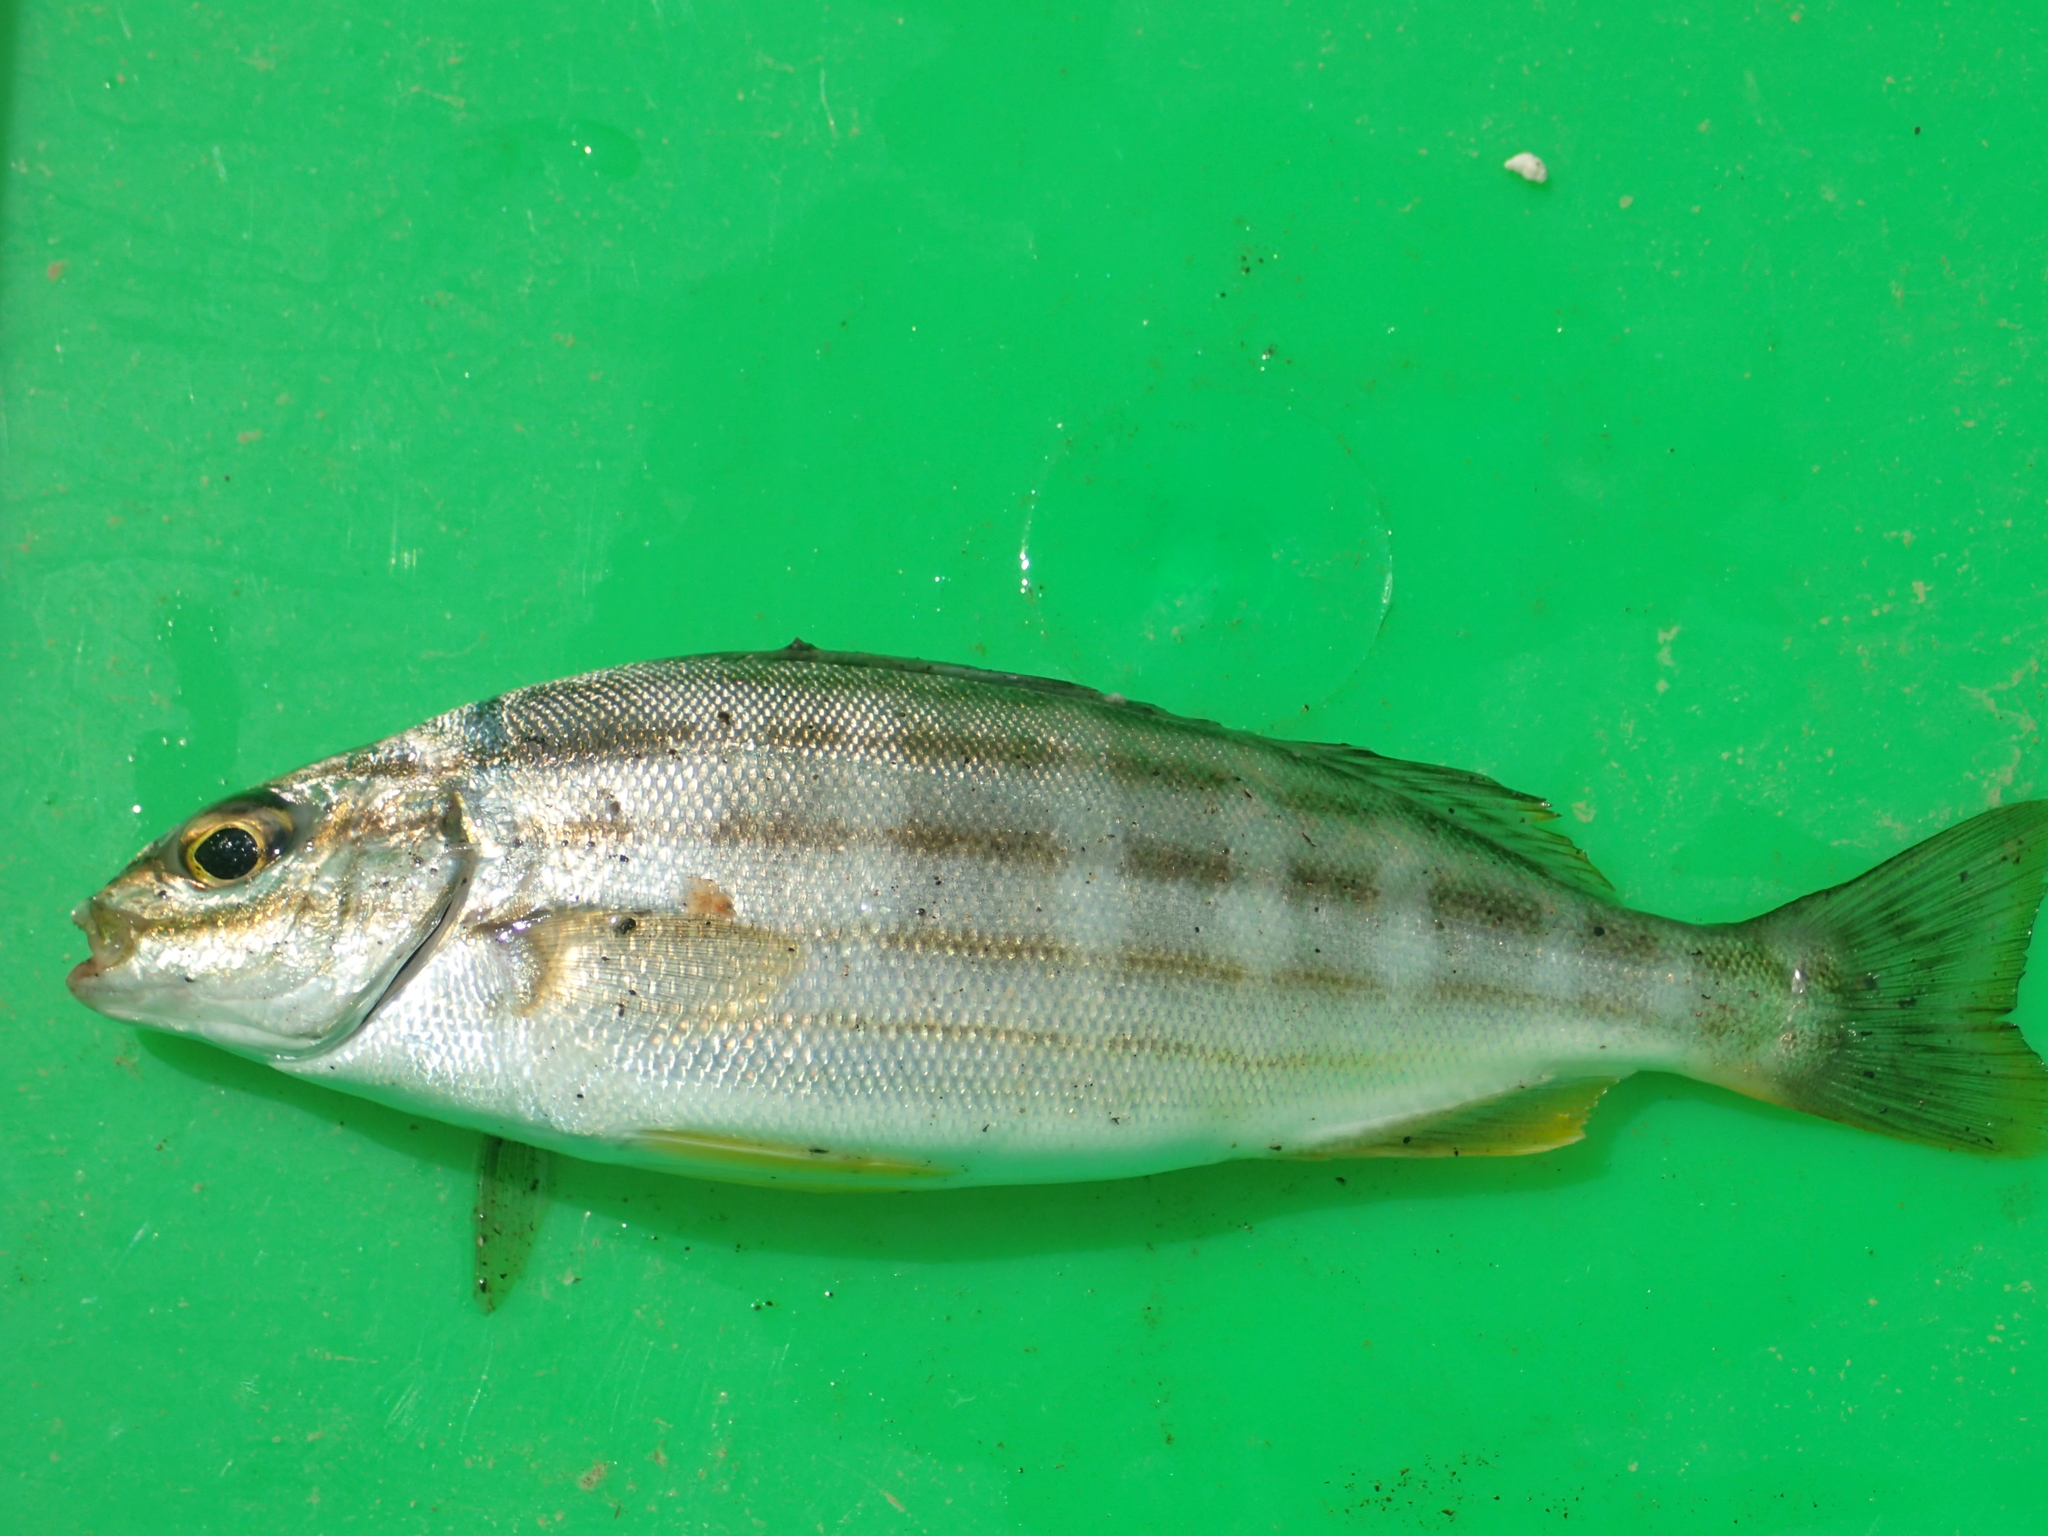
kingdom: Animalia
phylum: Chordata
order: Perciformes
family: Terapontidae
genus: Pelates
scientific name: Pelates quadrilineatus
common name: Fourlined terapon
